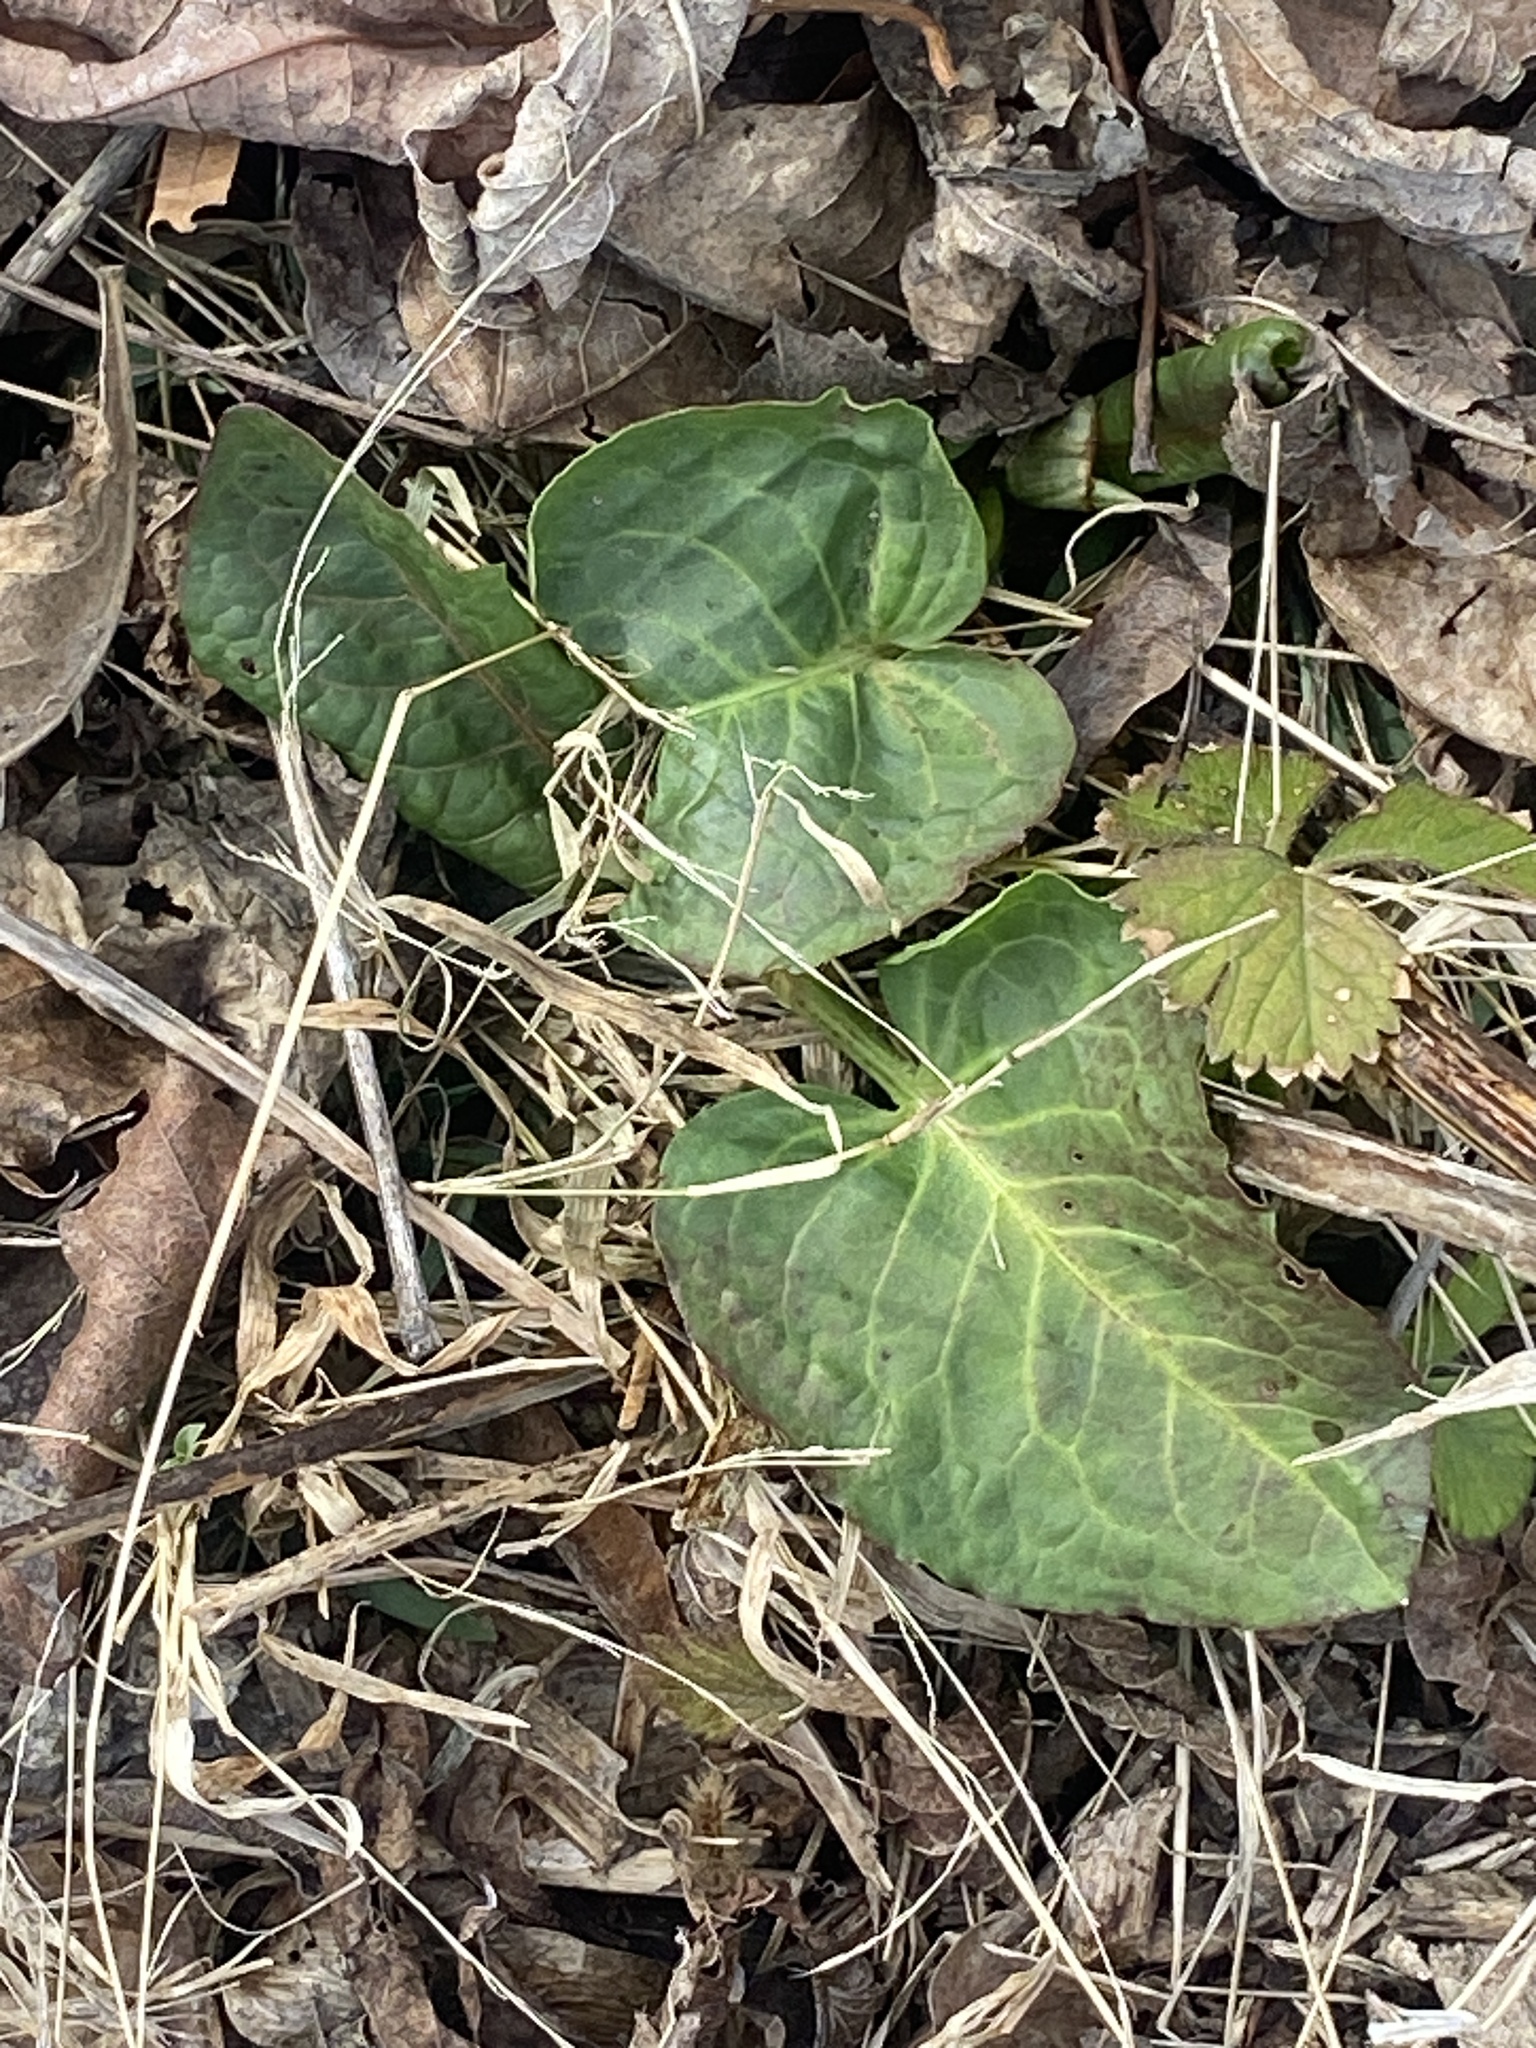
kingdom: Plantae
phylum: Tracheophyta
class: Magnoliopsida
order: Caryophyllales
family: Polygonaceae
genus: Rumex
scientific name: Rumex obtusifolius
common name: Bitter dock
